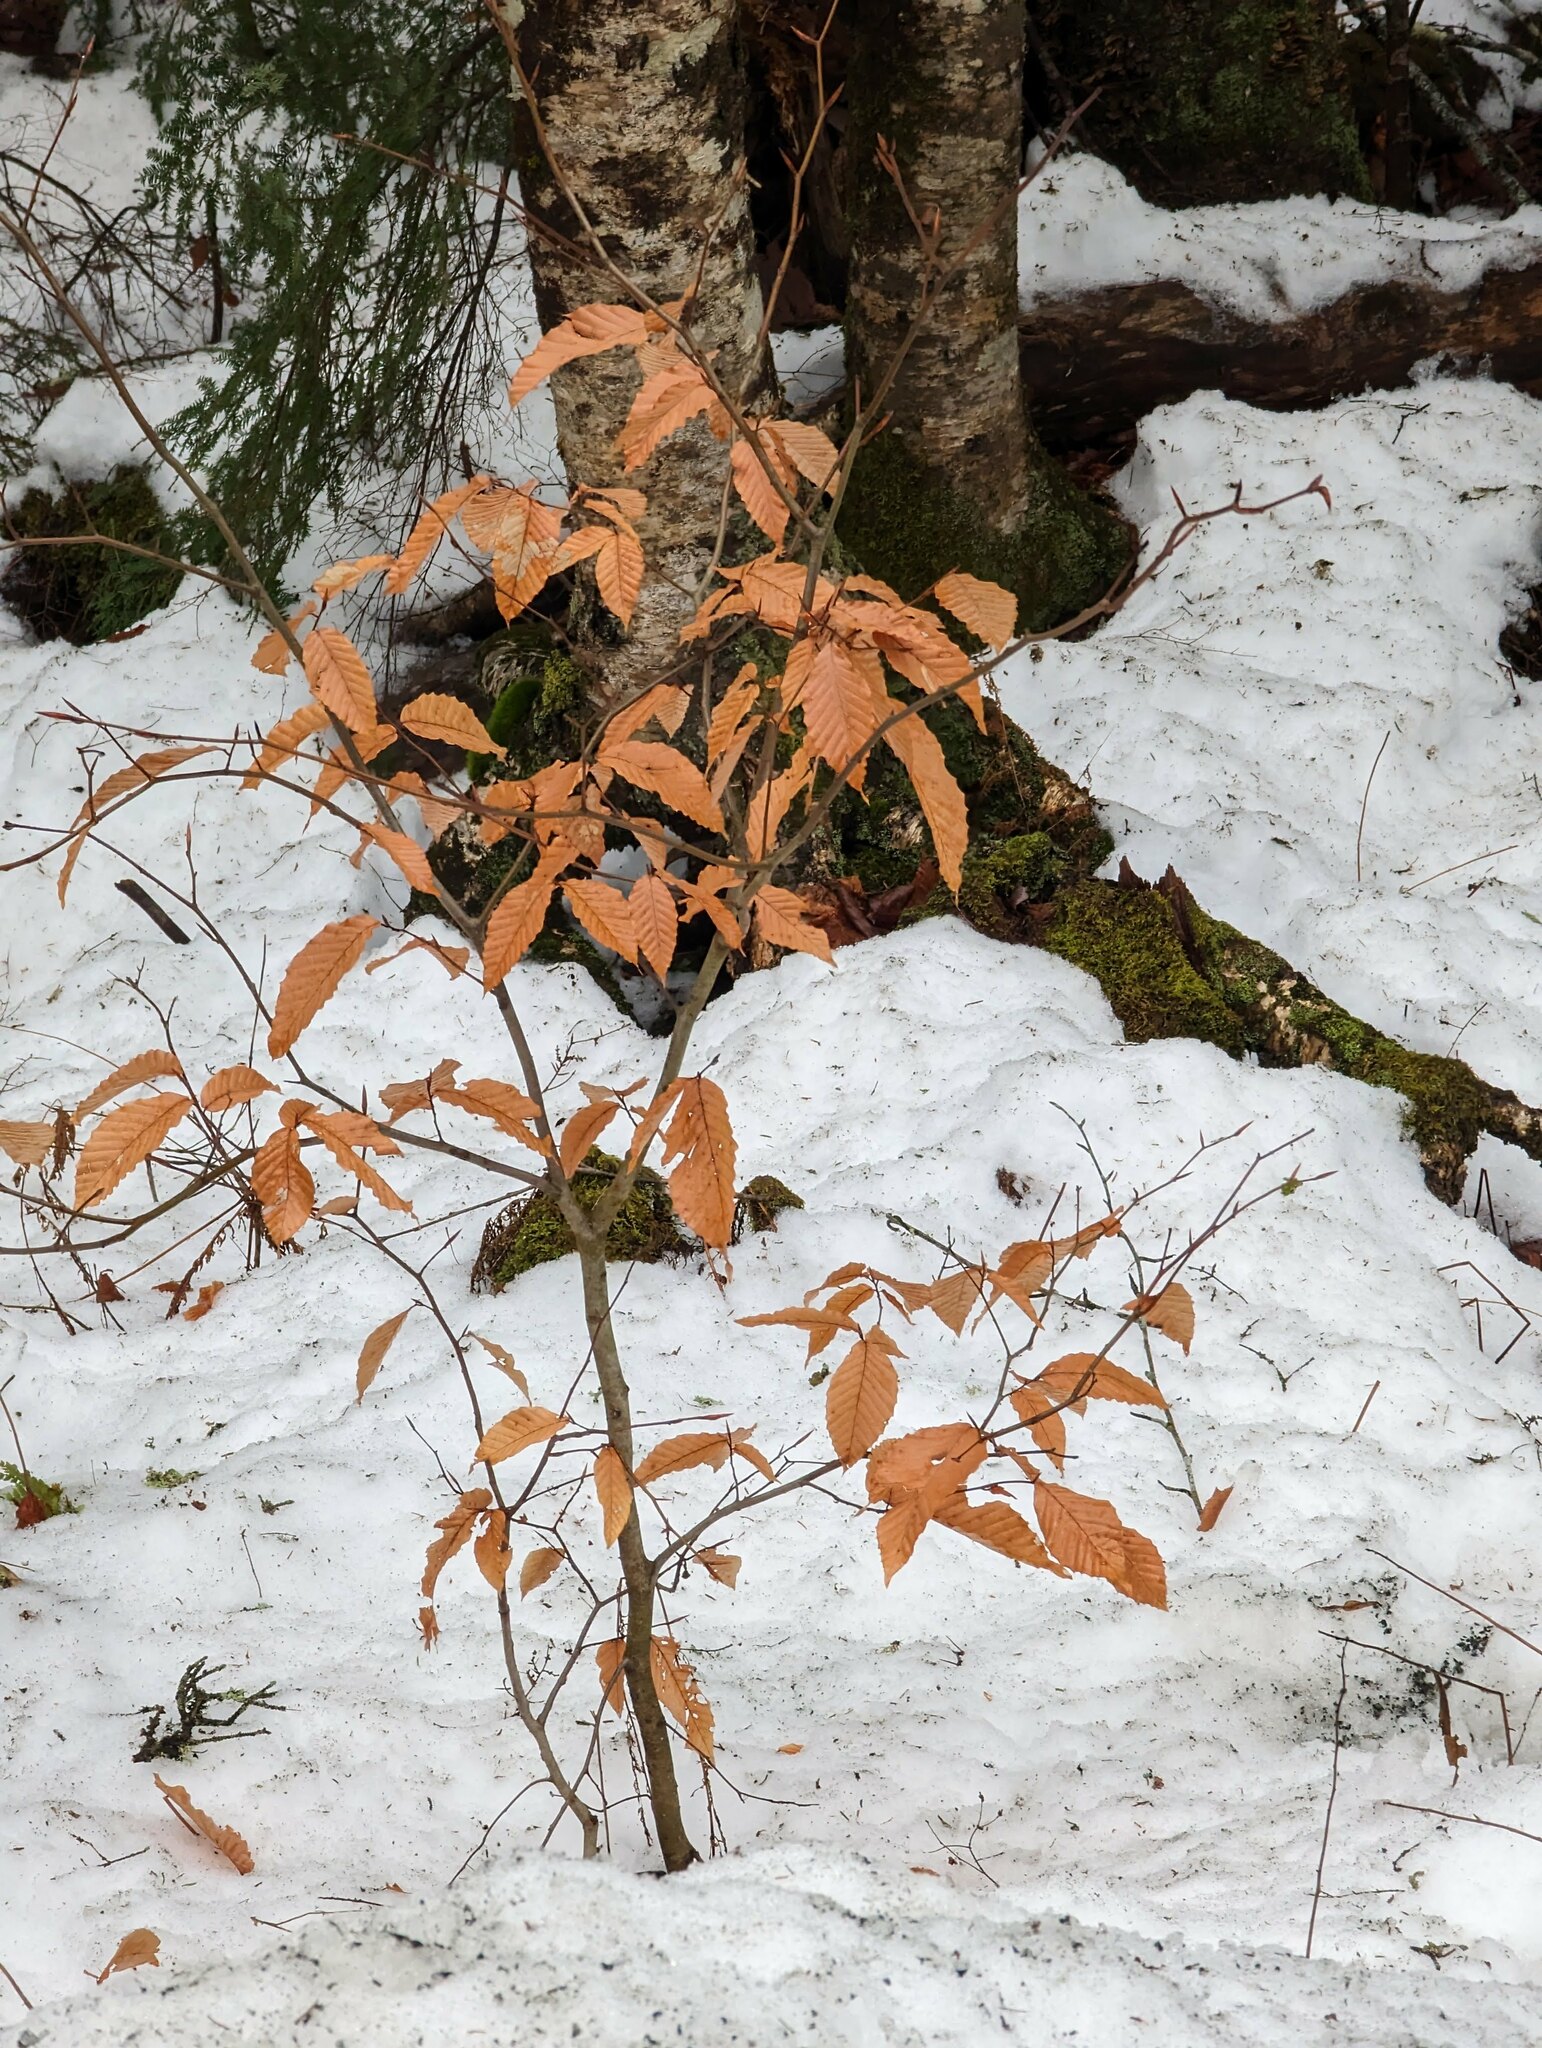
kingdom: Plantae
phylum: Tracheophyta
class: Magnoliopsida
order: Fagales
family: Fagaceae
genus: Fagus
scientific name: Fagus grandifolia
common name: American beech
